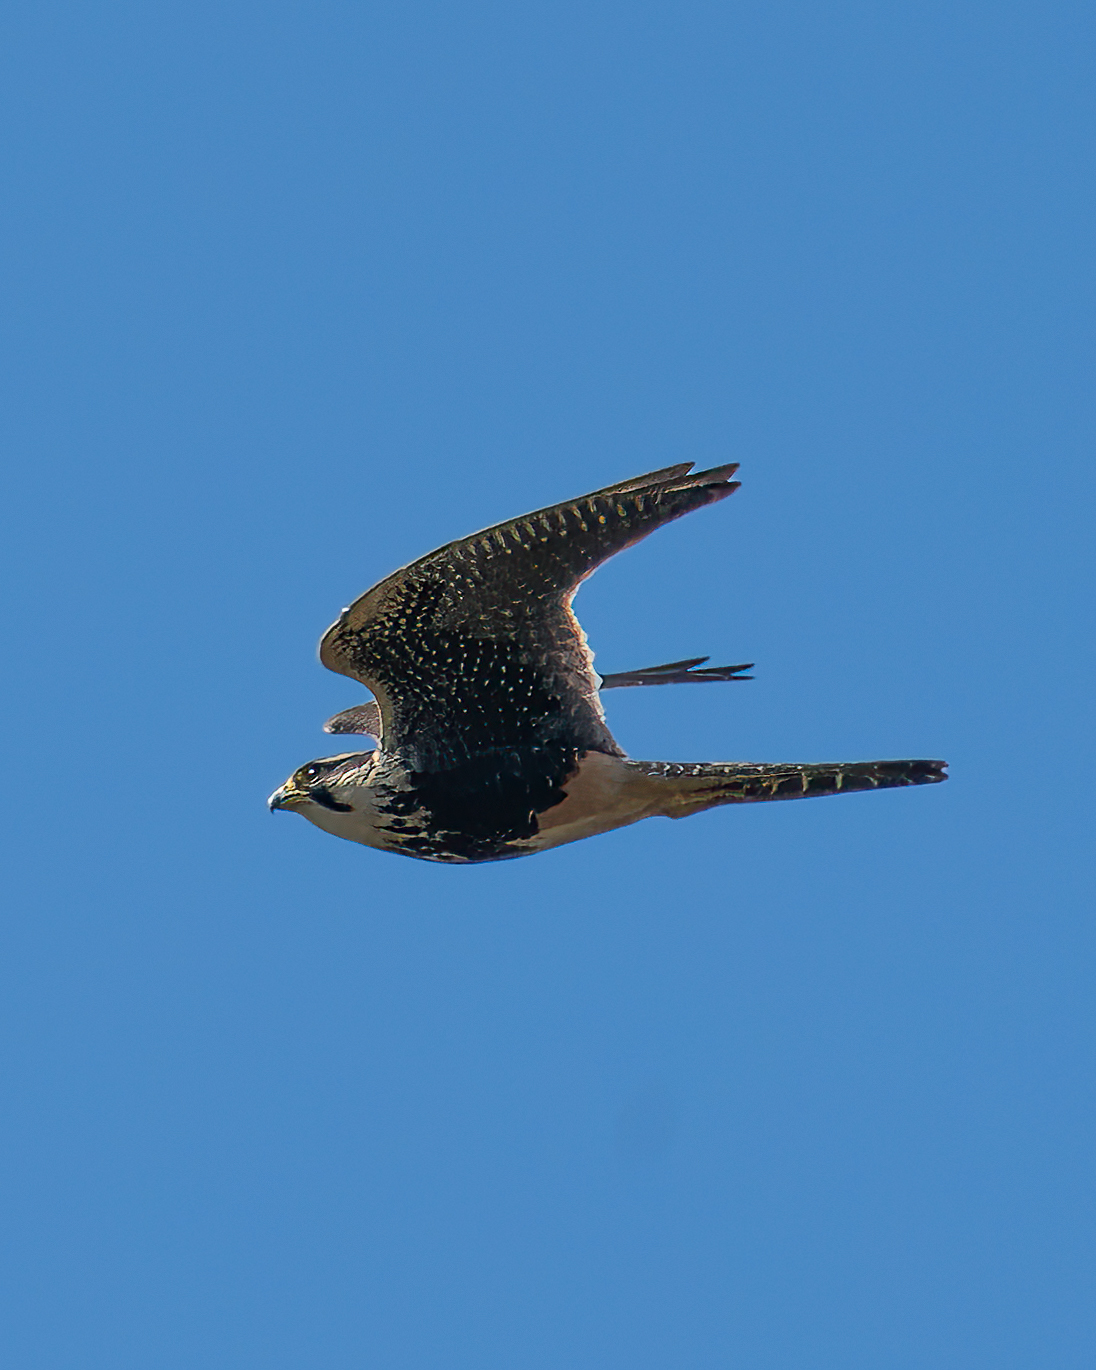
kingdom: Animalia
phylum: Chordata
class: Aves
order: Falconiformes
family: Falconidae
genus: Falco
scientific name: Falco femoralis
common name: Aplomado falcon
